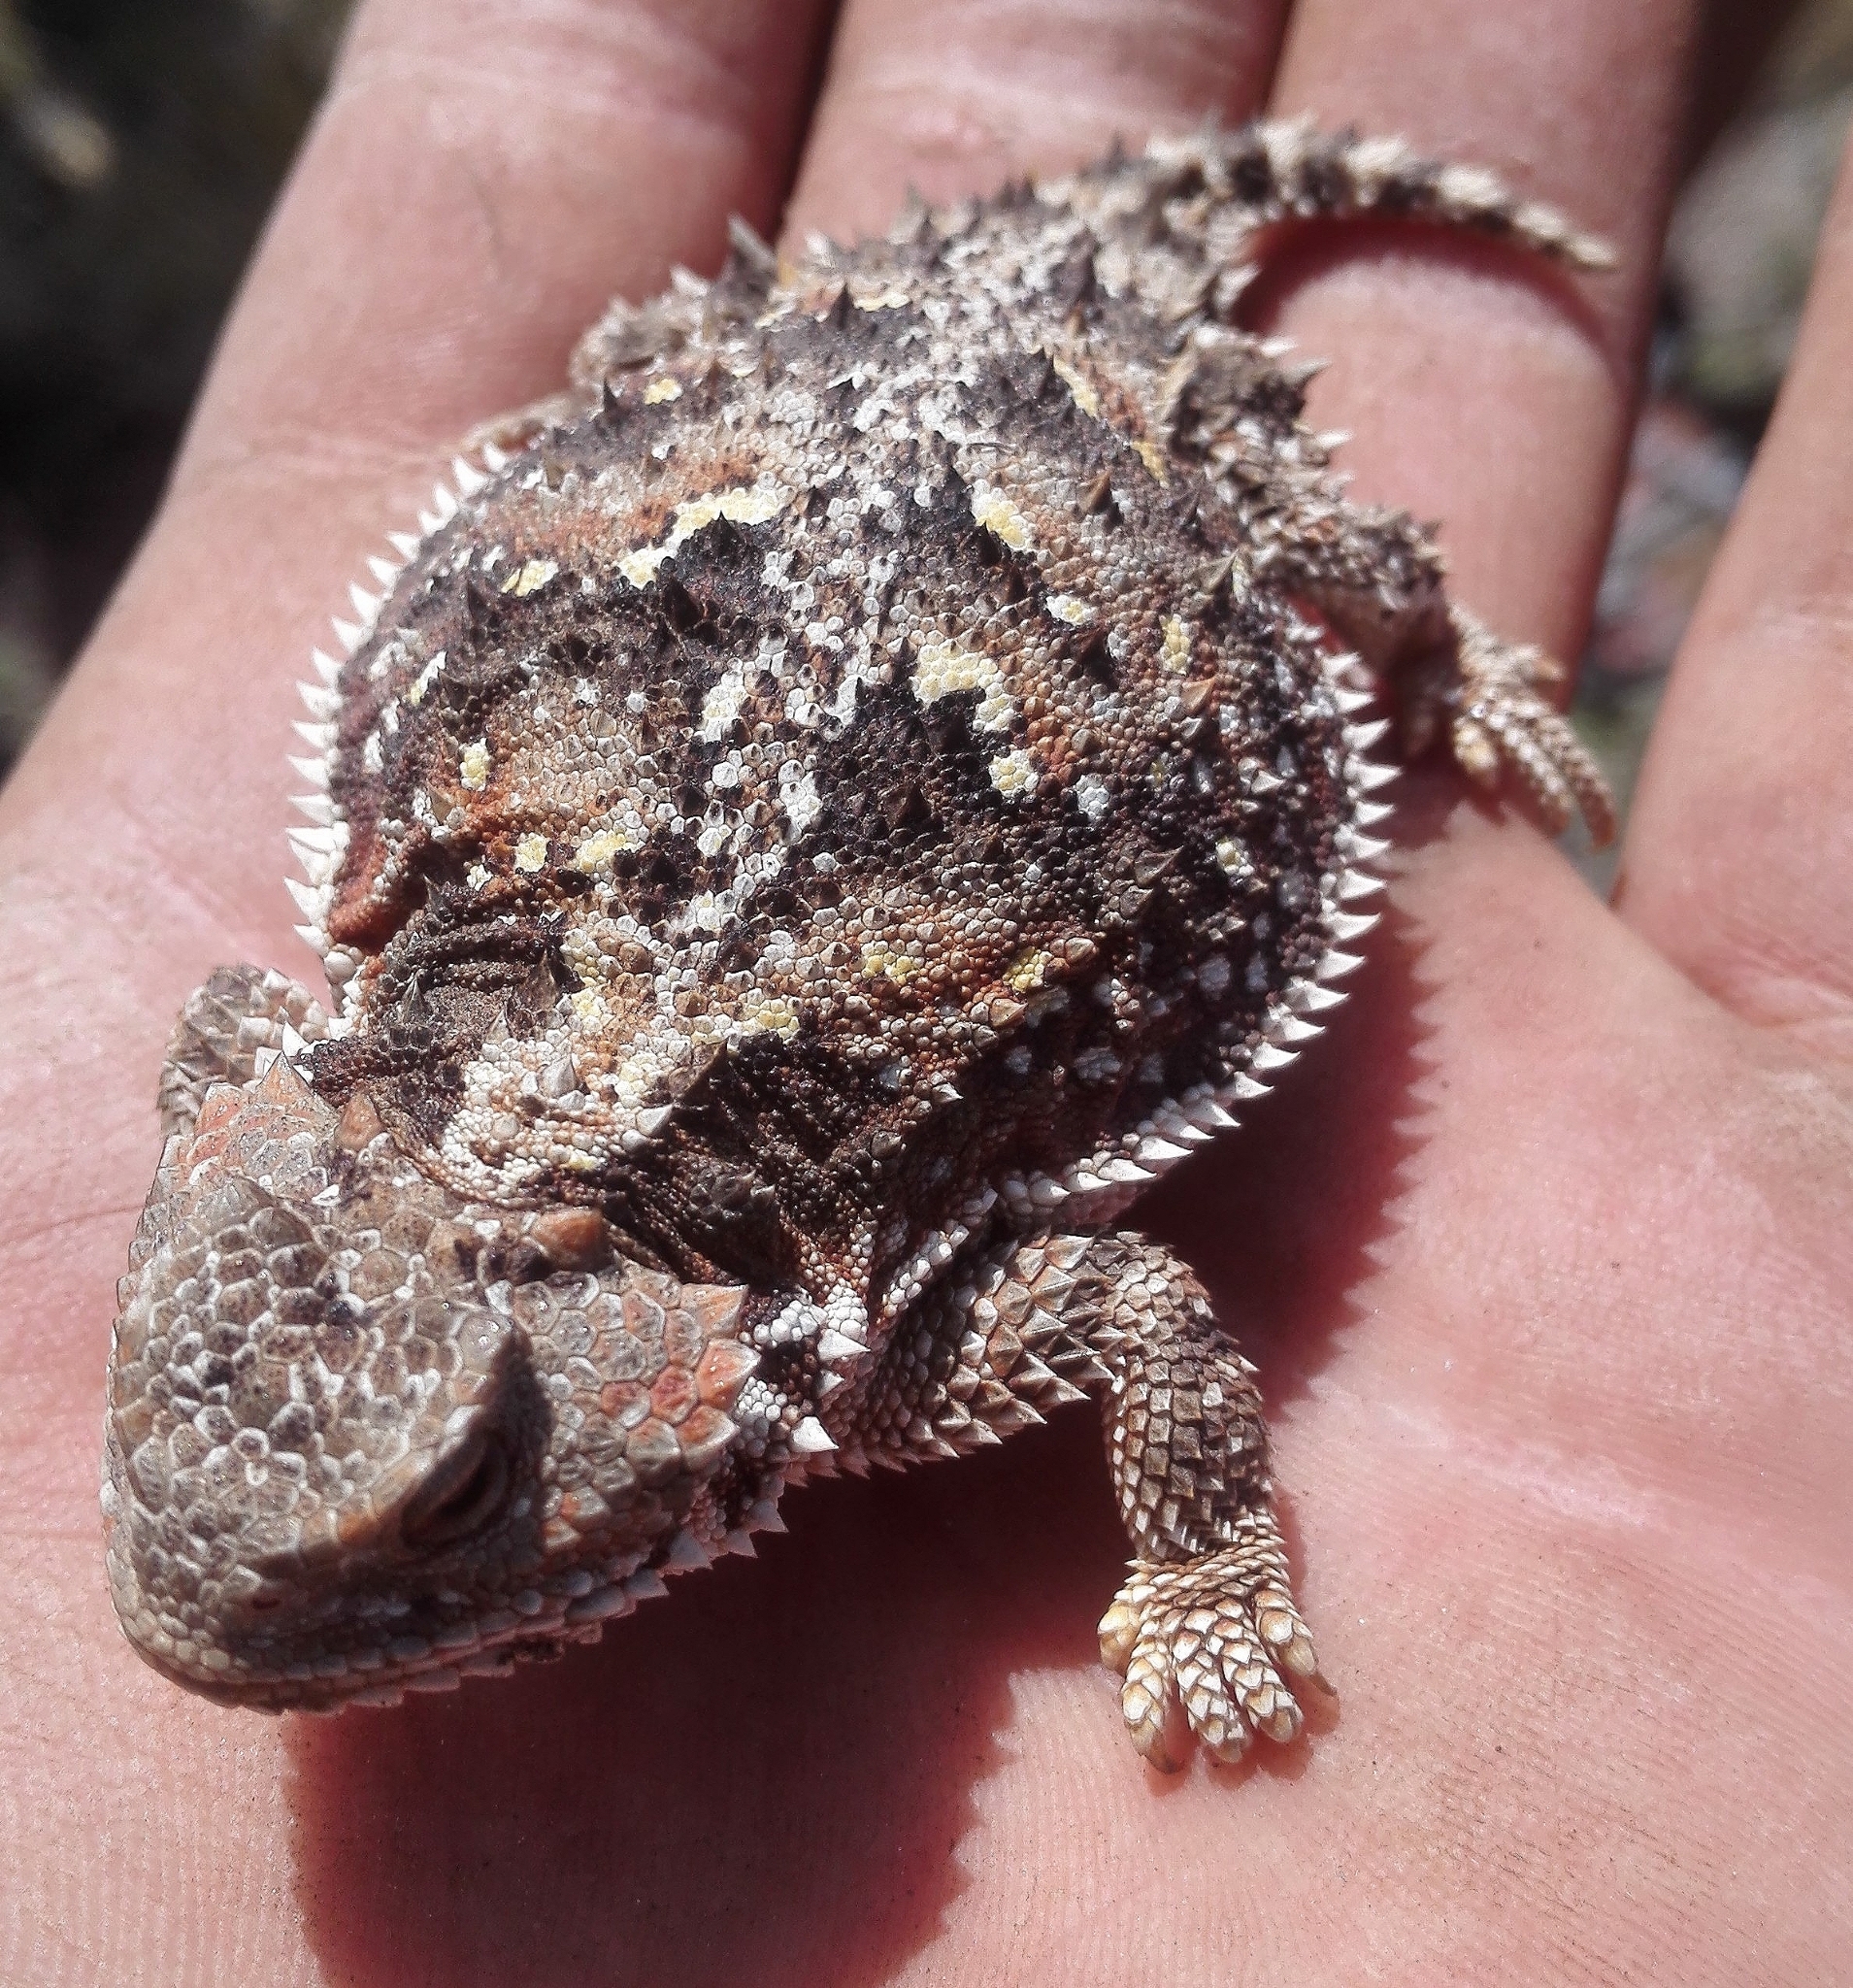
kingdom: Animalia
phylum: Chordata
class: Squamata
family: Phrynosomatidae
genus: Phrynosoma
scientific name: Phrynosoma hernandesi
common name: Greater short-horned lizard
